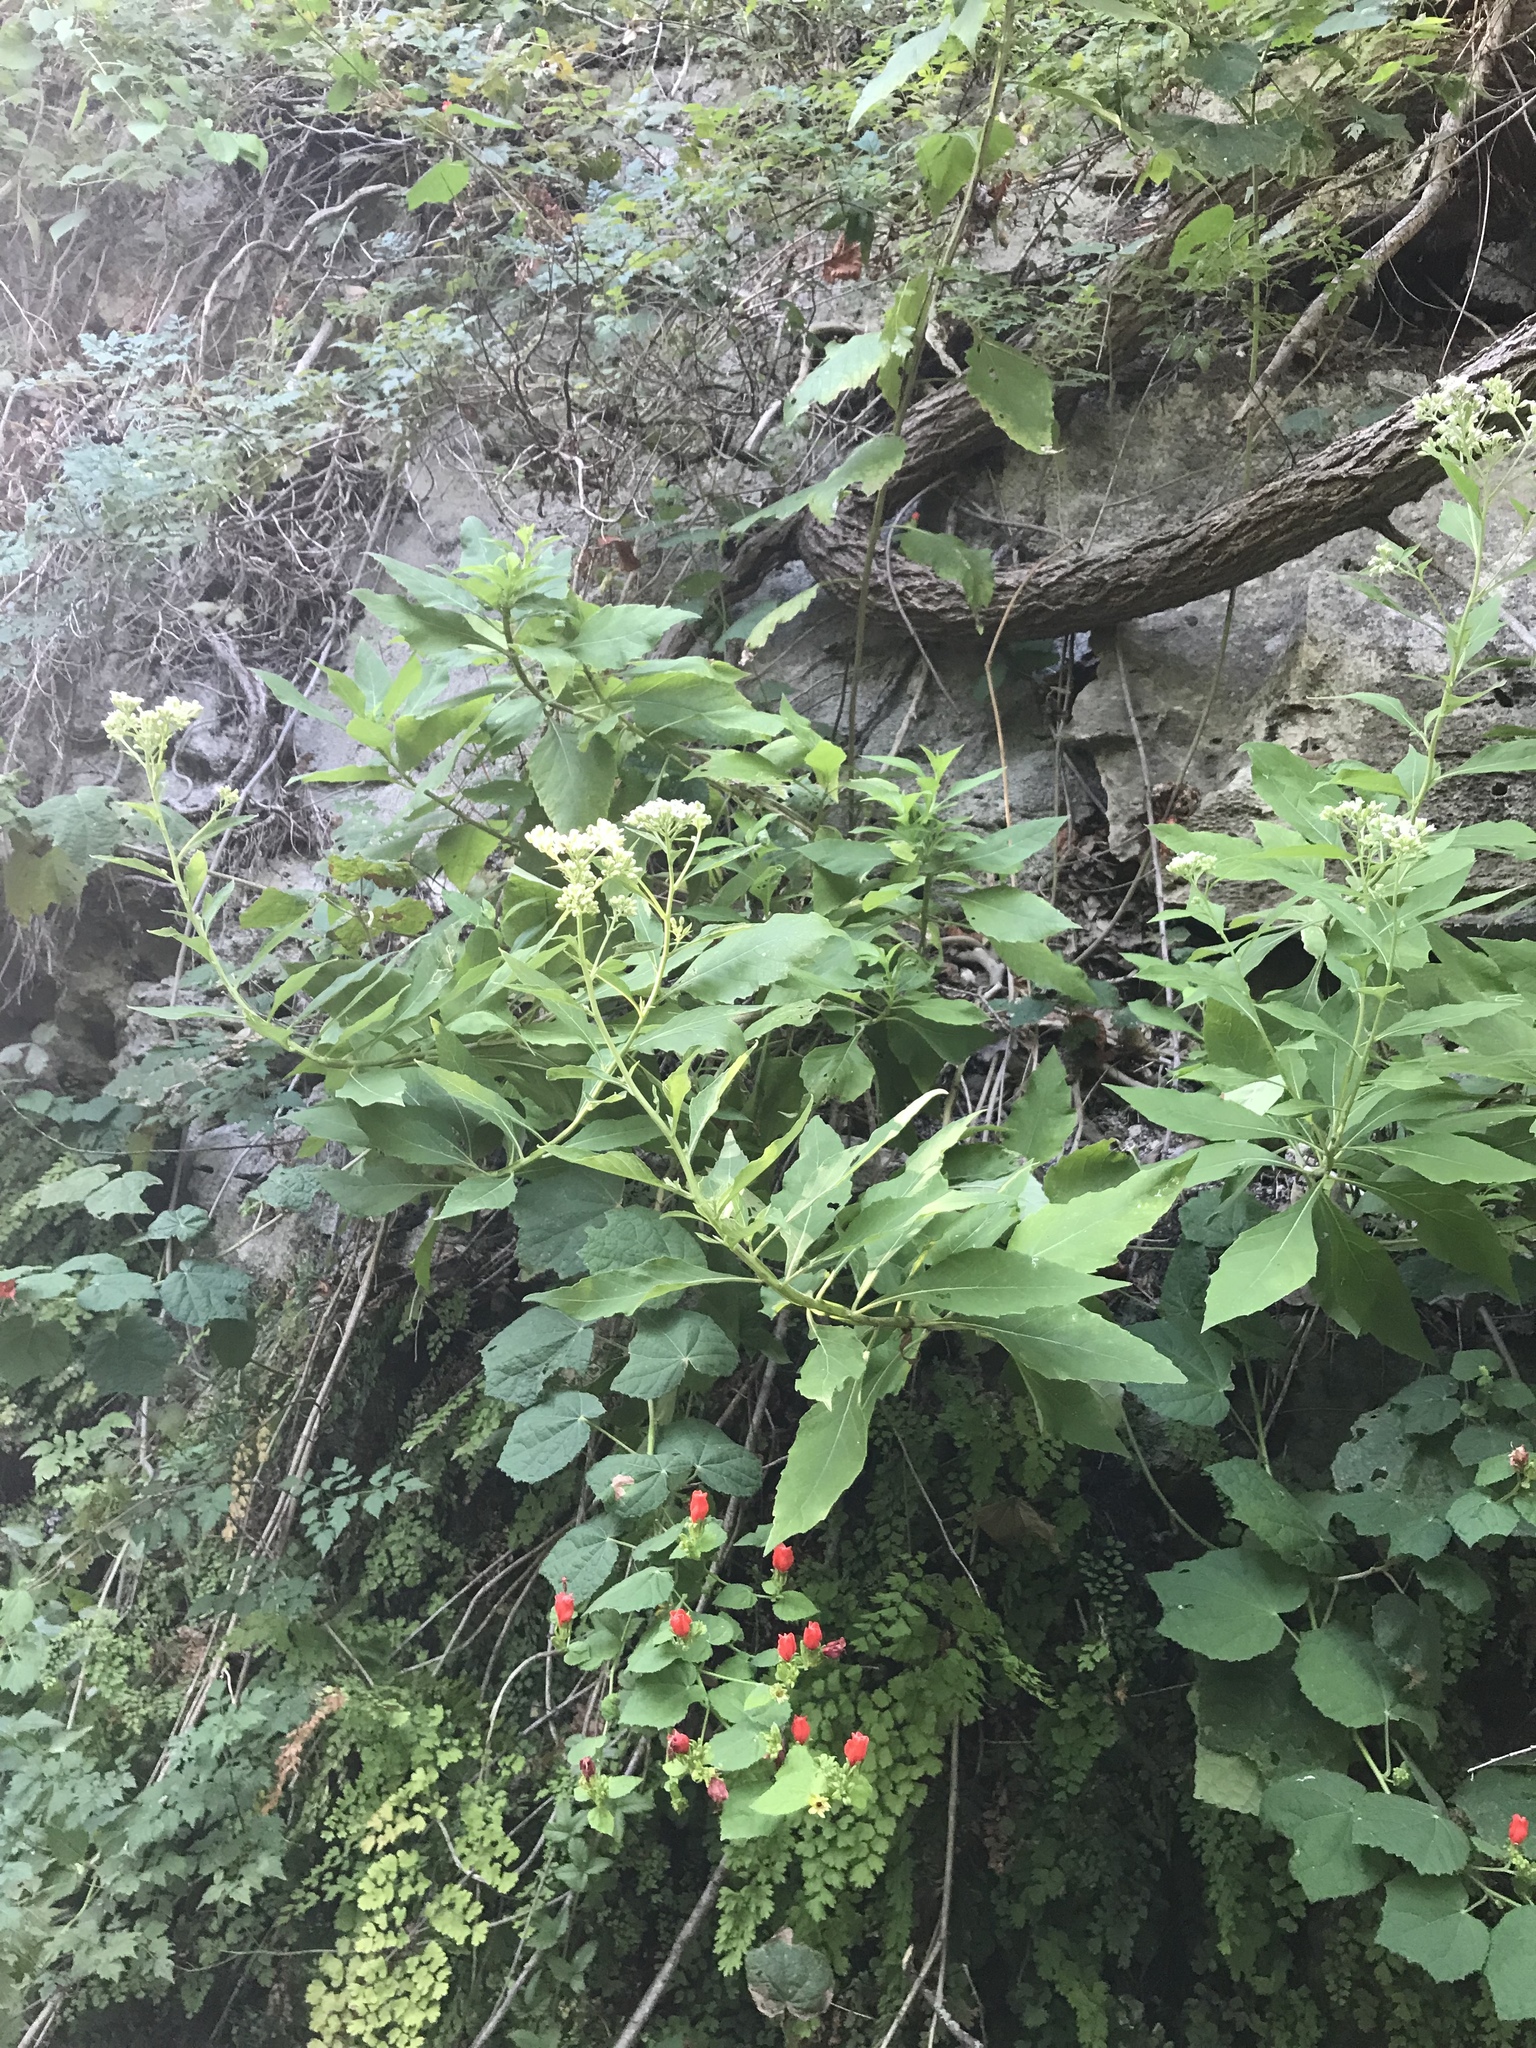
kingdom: Plantae
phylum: Tracheophyta
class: Magnoliopsida
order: Asterales
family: Asteraceae
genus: Verbesina
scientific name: Verbesina virginica
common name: Frostweed
